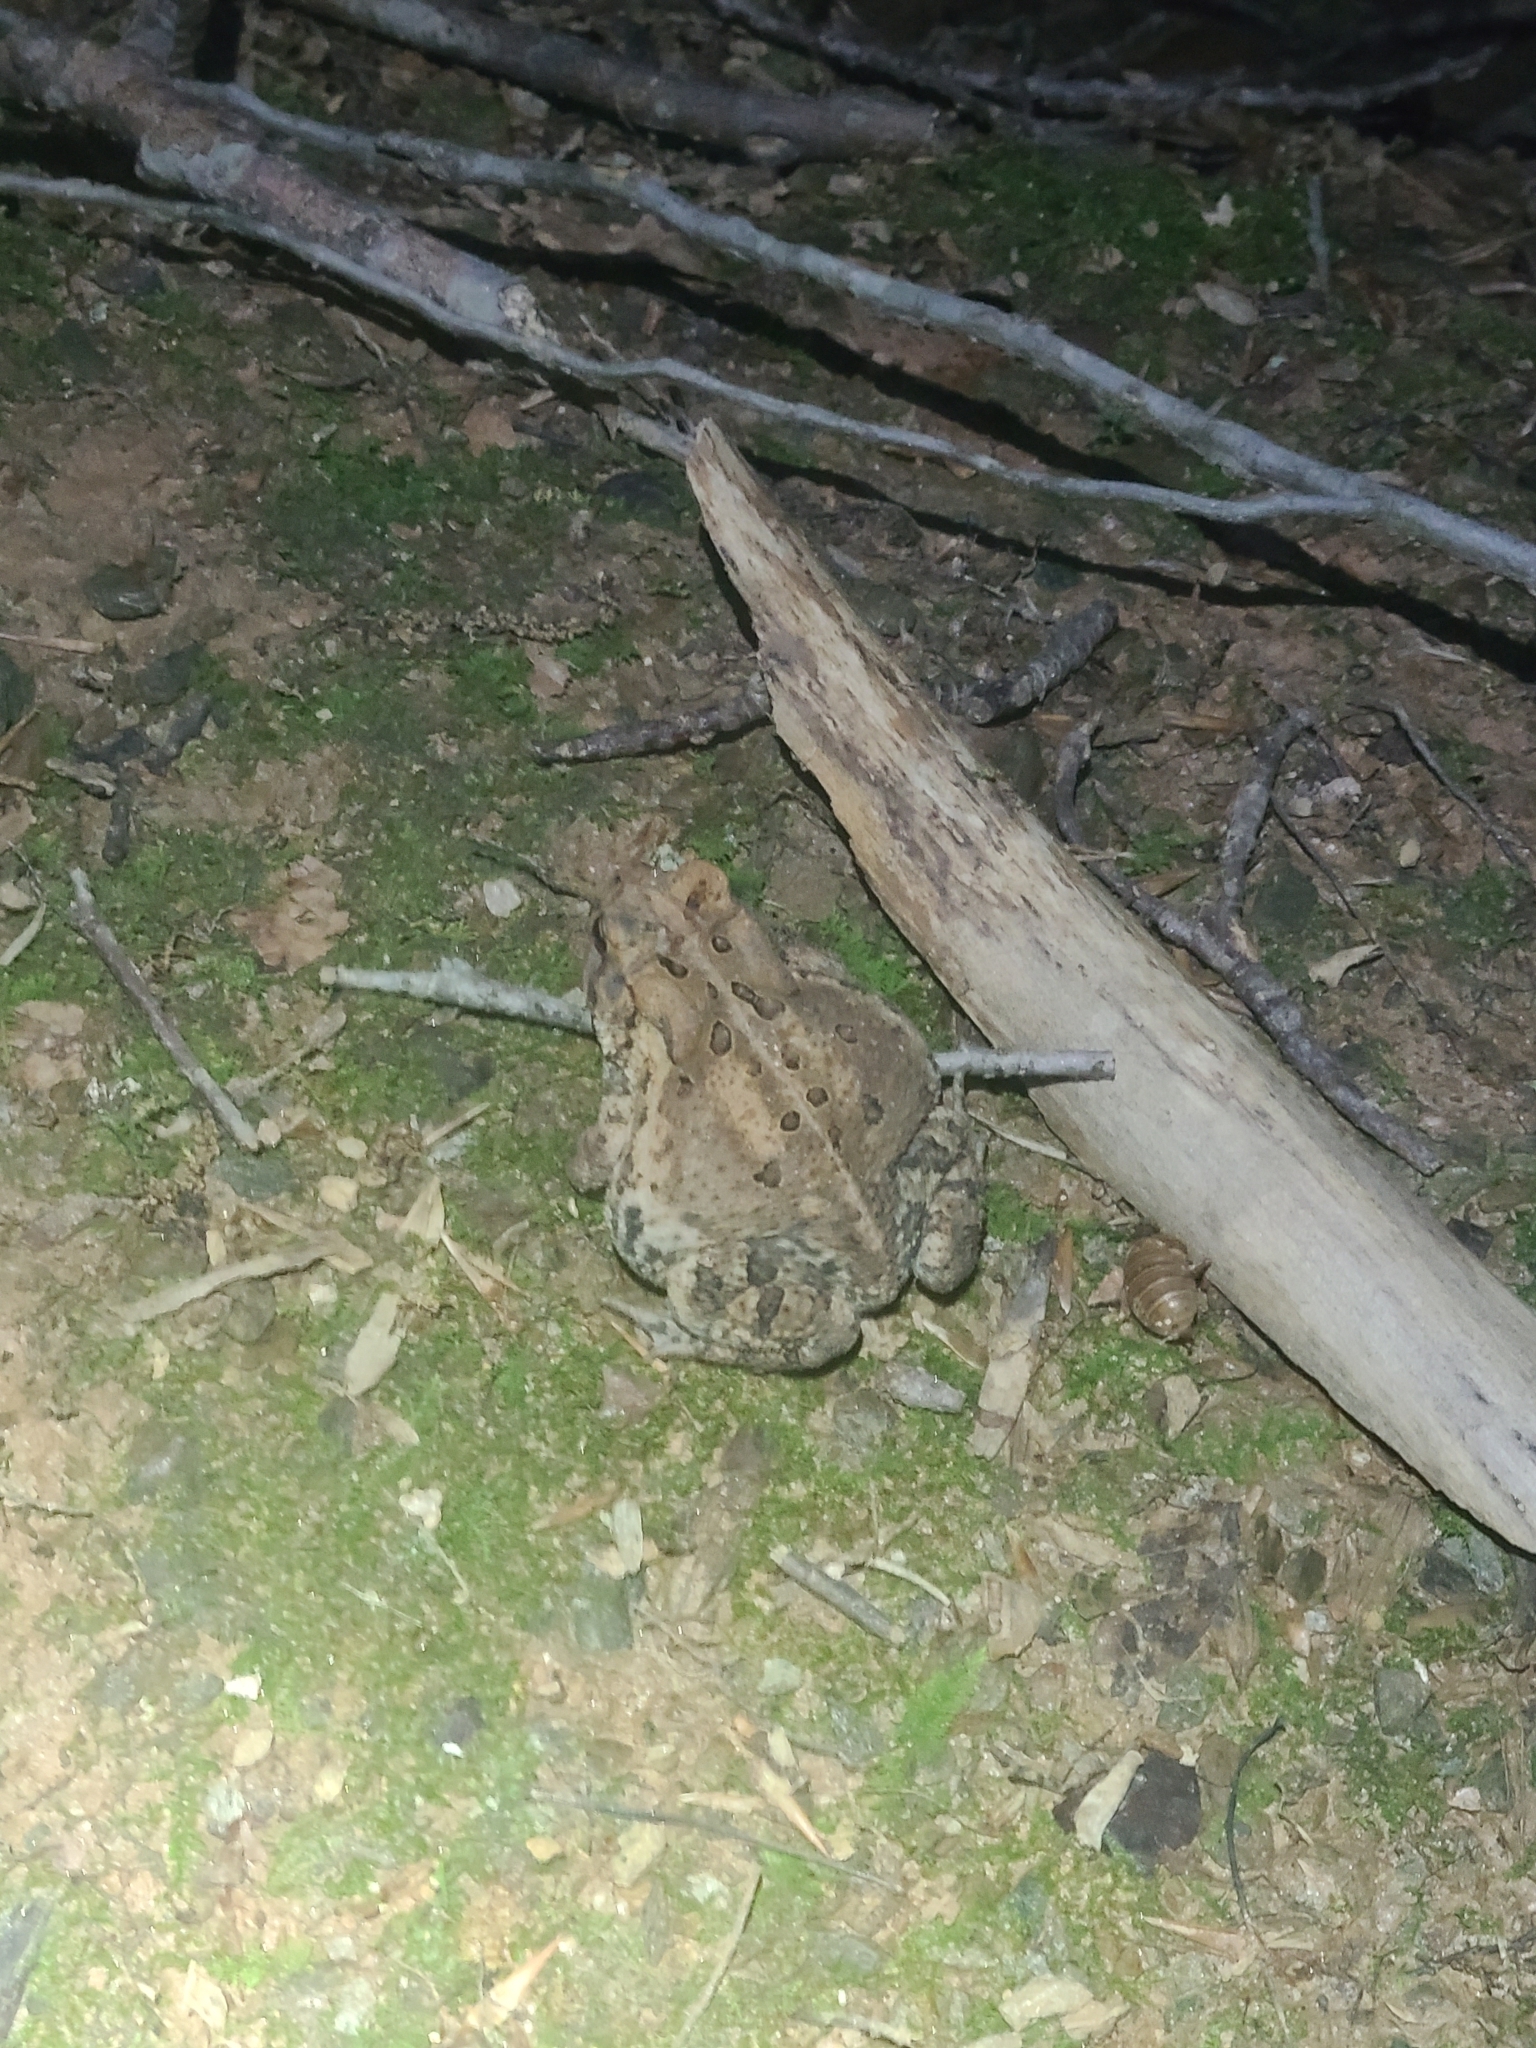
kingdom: Animalia
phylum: Chordata
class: Amphibia
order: Anura
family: Bufonidae
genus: Anaxyrus
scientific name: Anaxyrus americanus
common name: American toad
